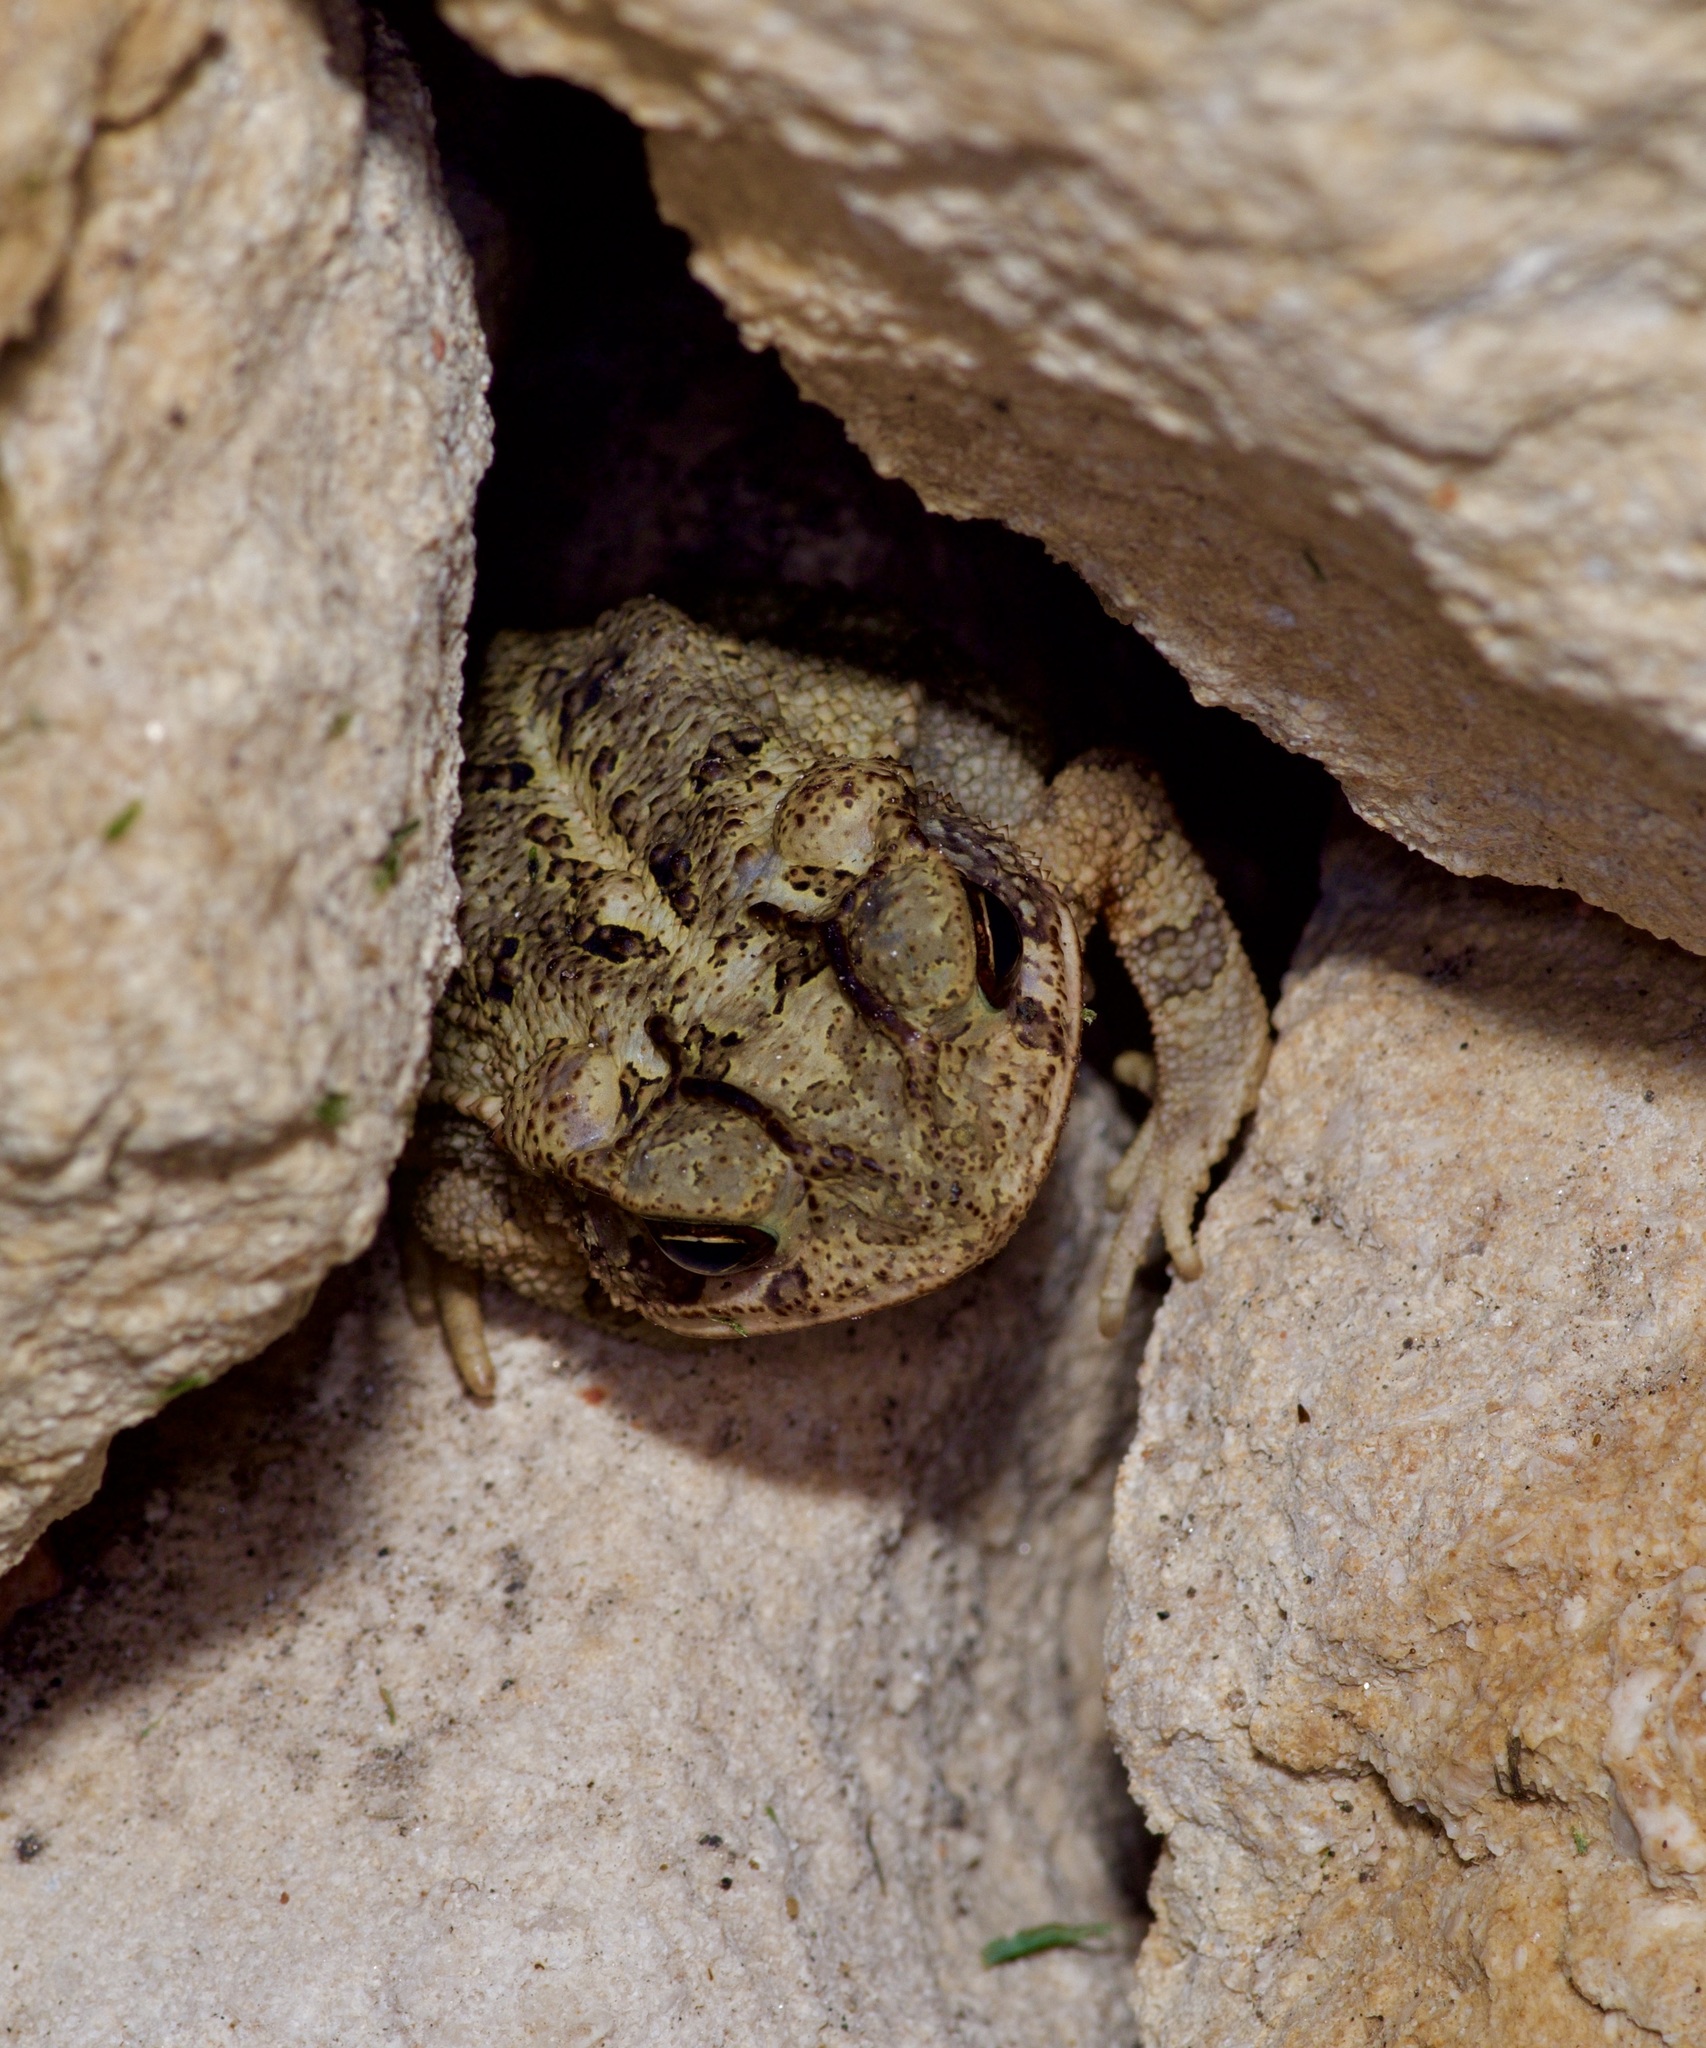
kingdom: Animalia
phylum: Chordata
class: Amphibia
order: Anura
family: Bufonidae
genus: Incilius
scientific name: Incilius nebulifer
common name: Gulf coast toad
